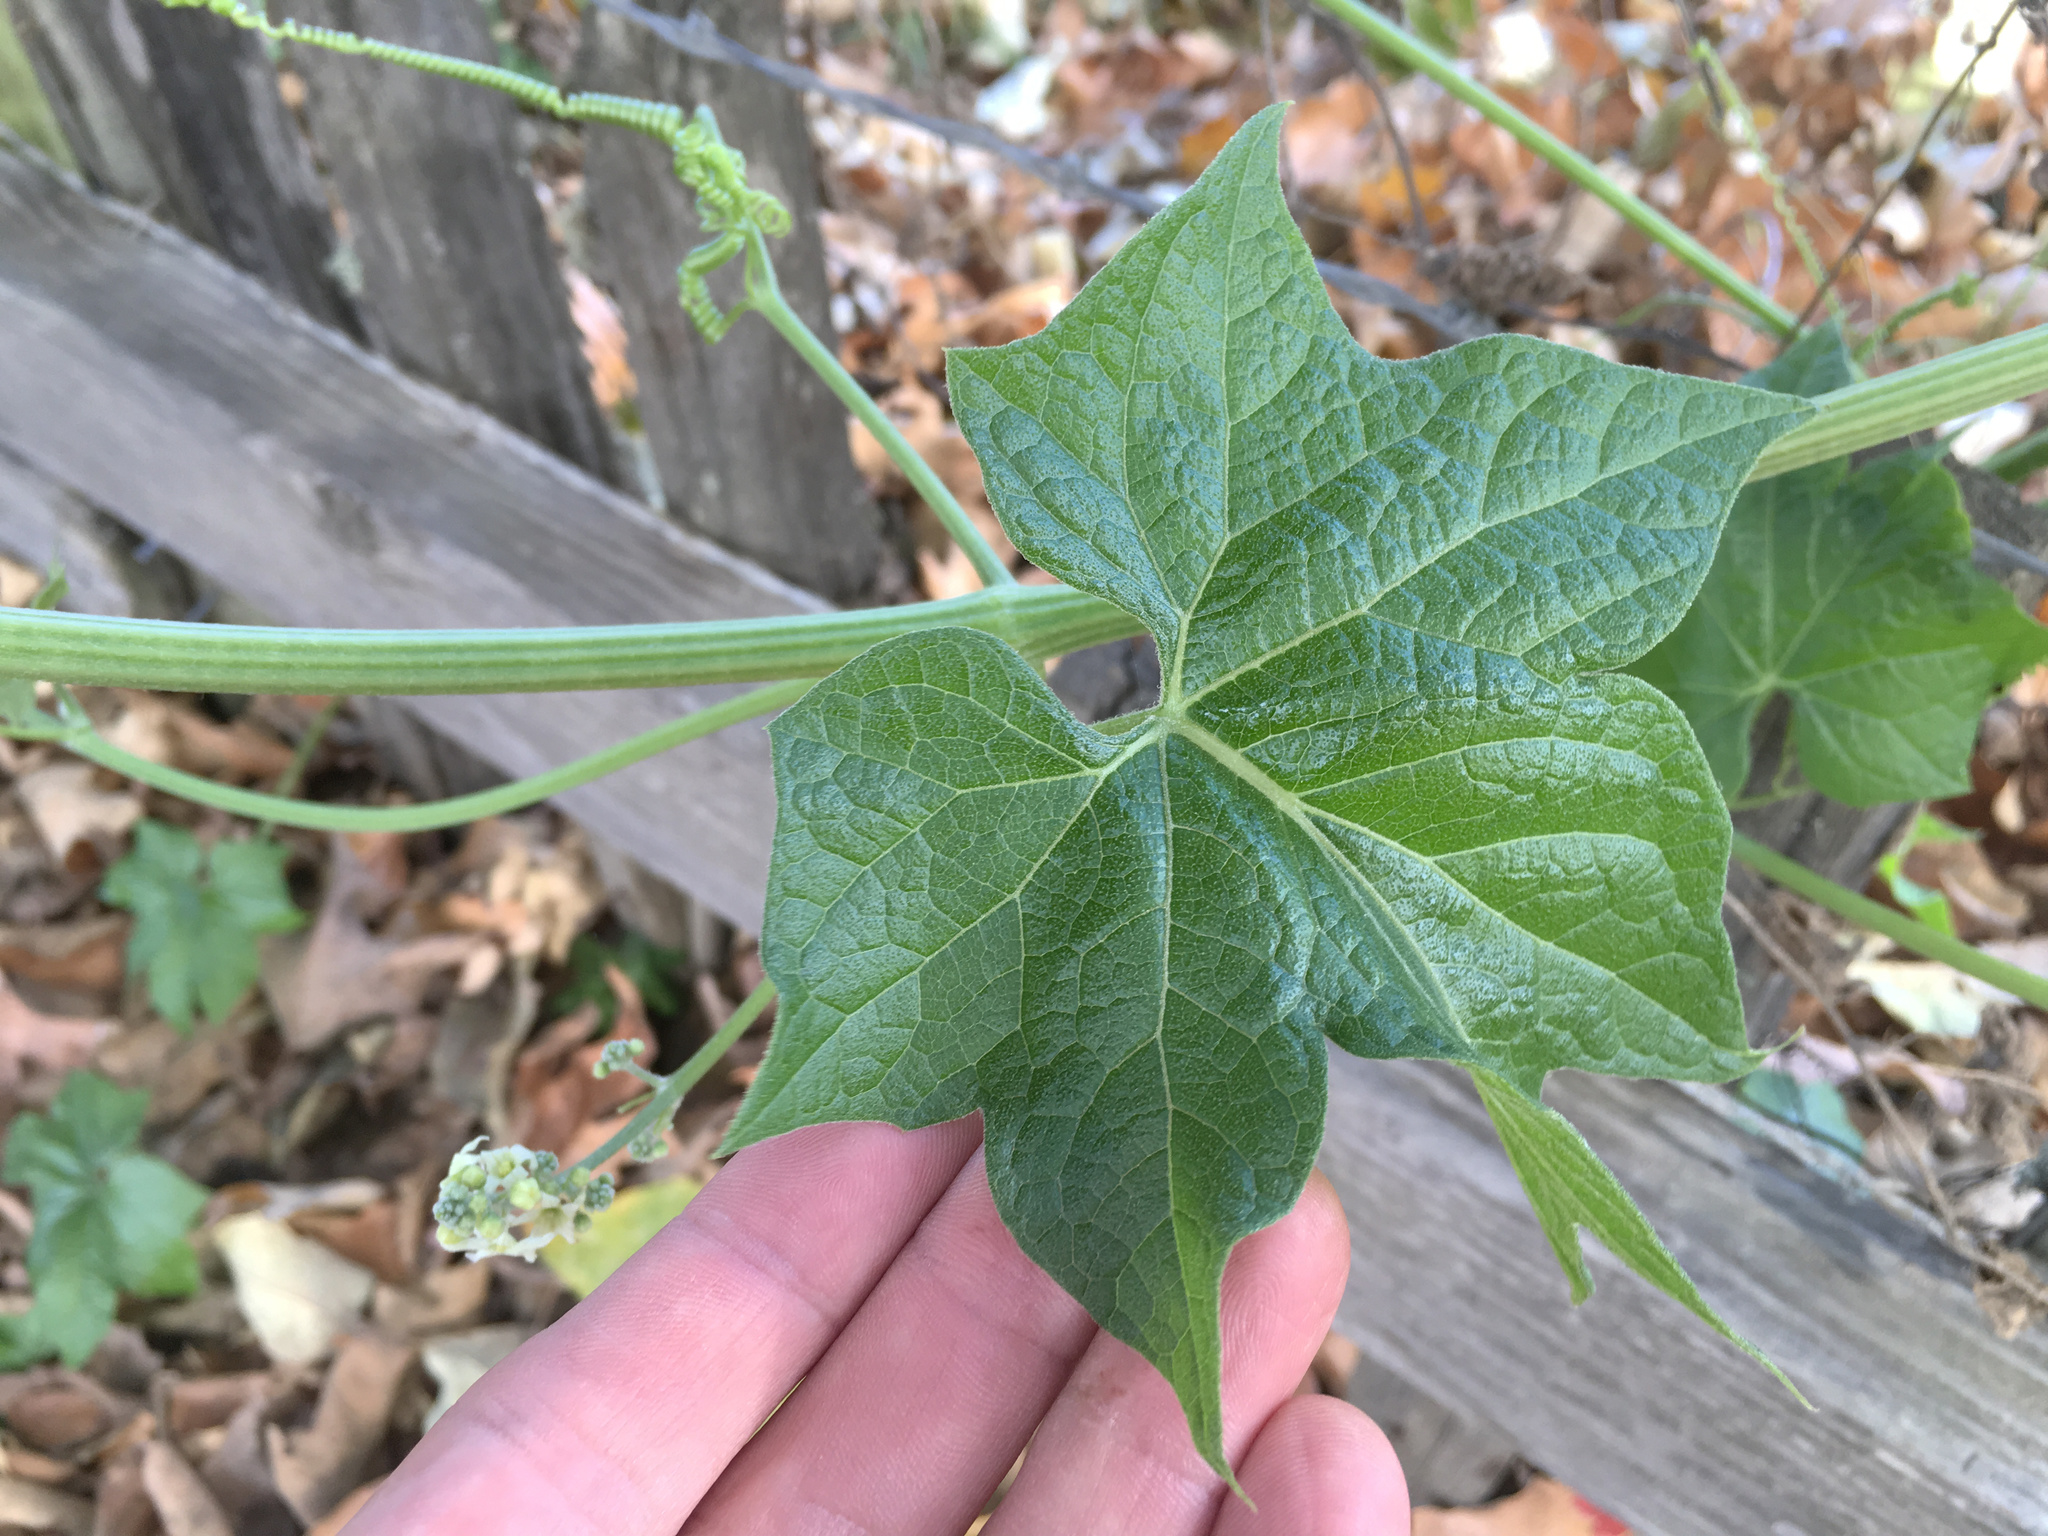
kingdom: Plantae
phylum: Tracheophyta
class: Magnoliopsida
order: Cucurbitales
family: Cucurbitaceae
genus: Marah
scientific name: Marah fabacea
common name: California manroot
